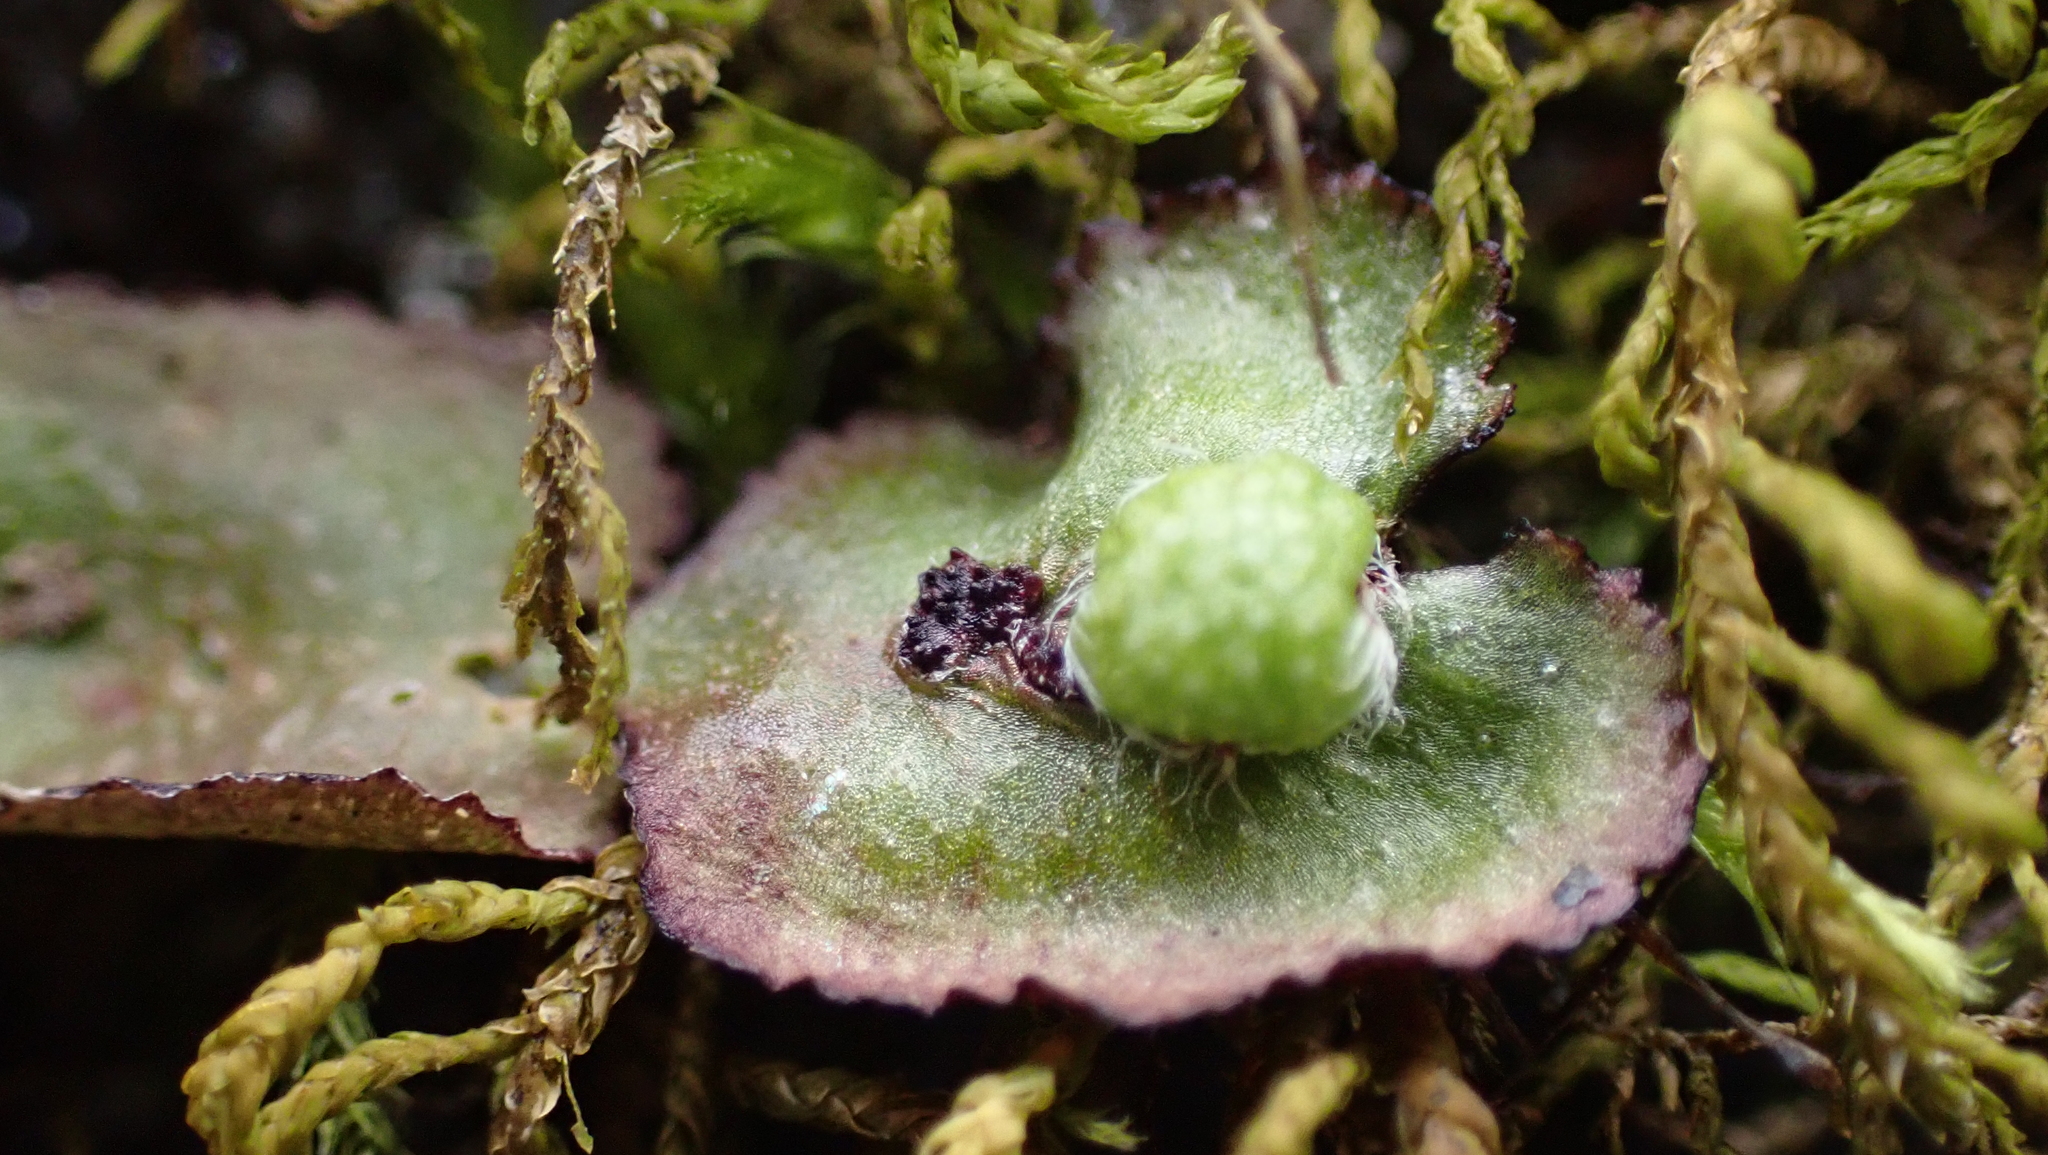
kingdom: Plantae
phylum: Marchantiophyta
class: Marchantiopsida
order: Marchantiales
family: Aytoniaceae
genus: Reboulia
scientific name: Reboulia hemisphaerica
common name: Purple-margined liverwort
